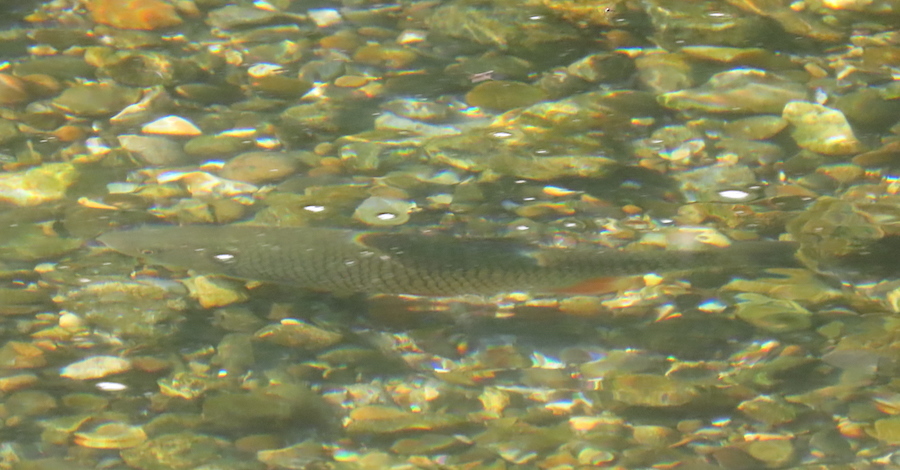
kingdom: Animalia
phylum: Chordata
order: Cypriniformes
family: Cyprinidae
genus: Squalius
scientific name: Squalius cephalus
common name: Chub
